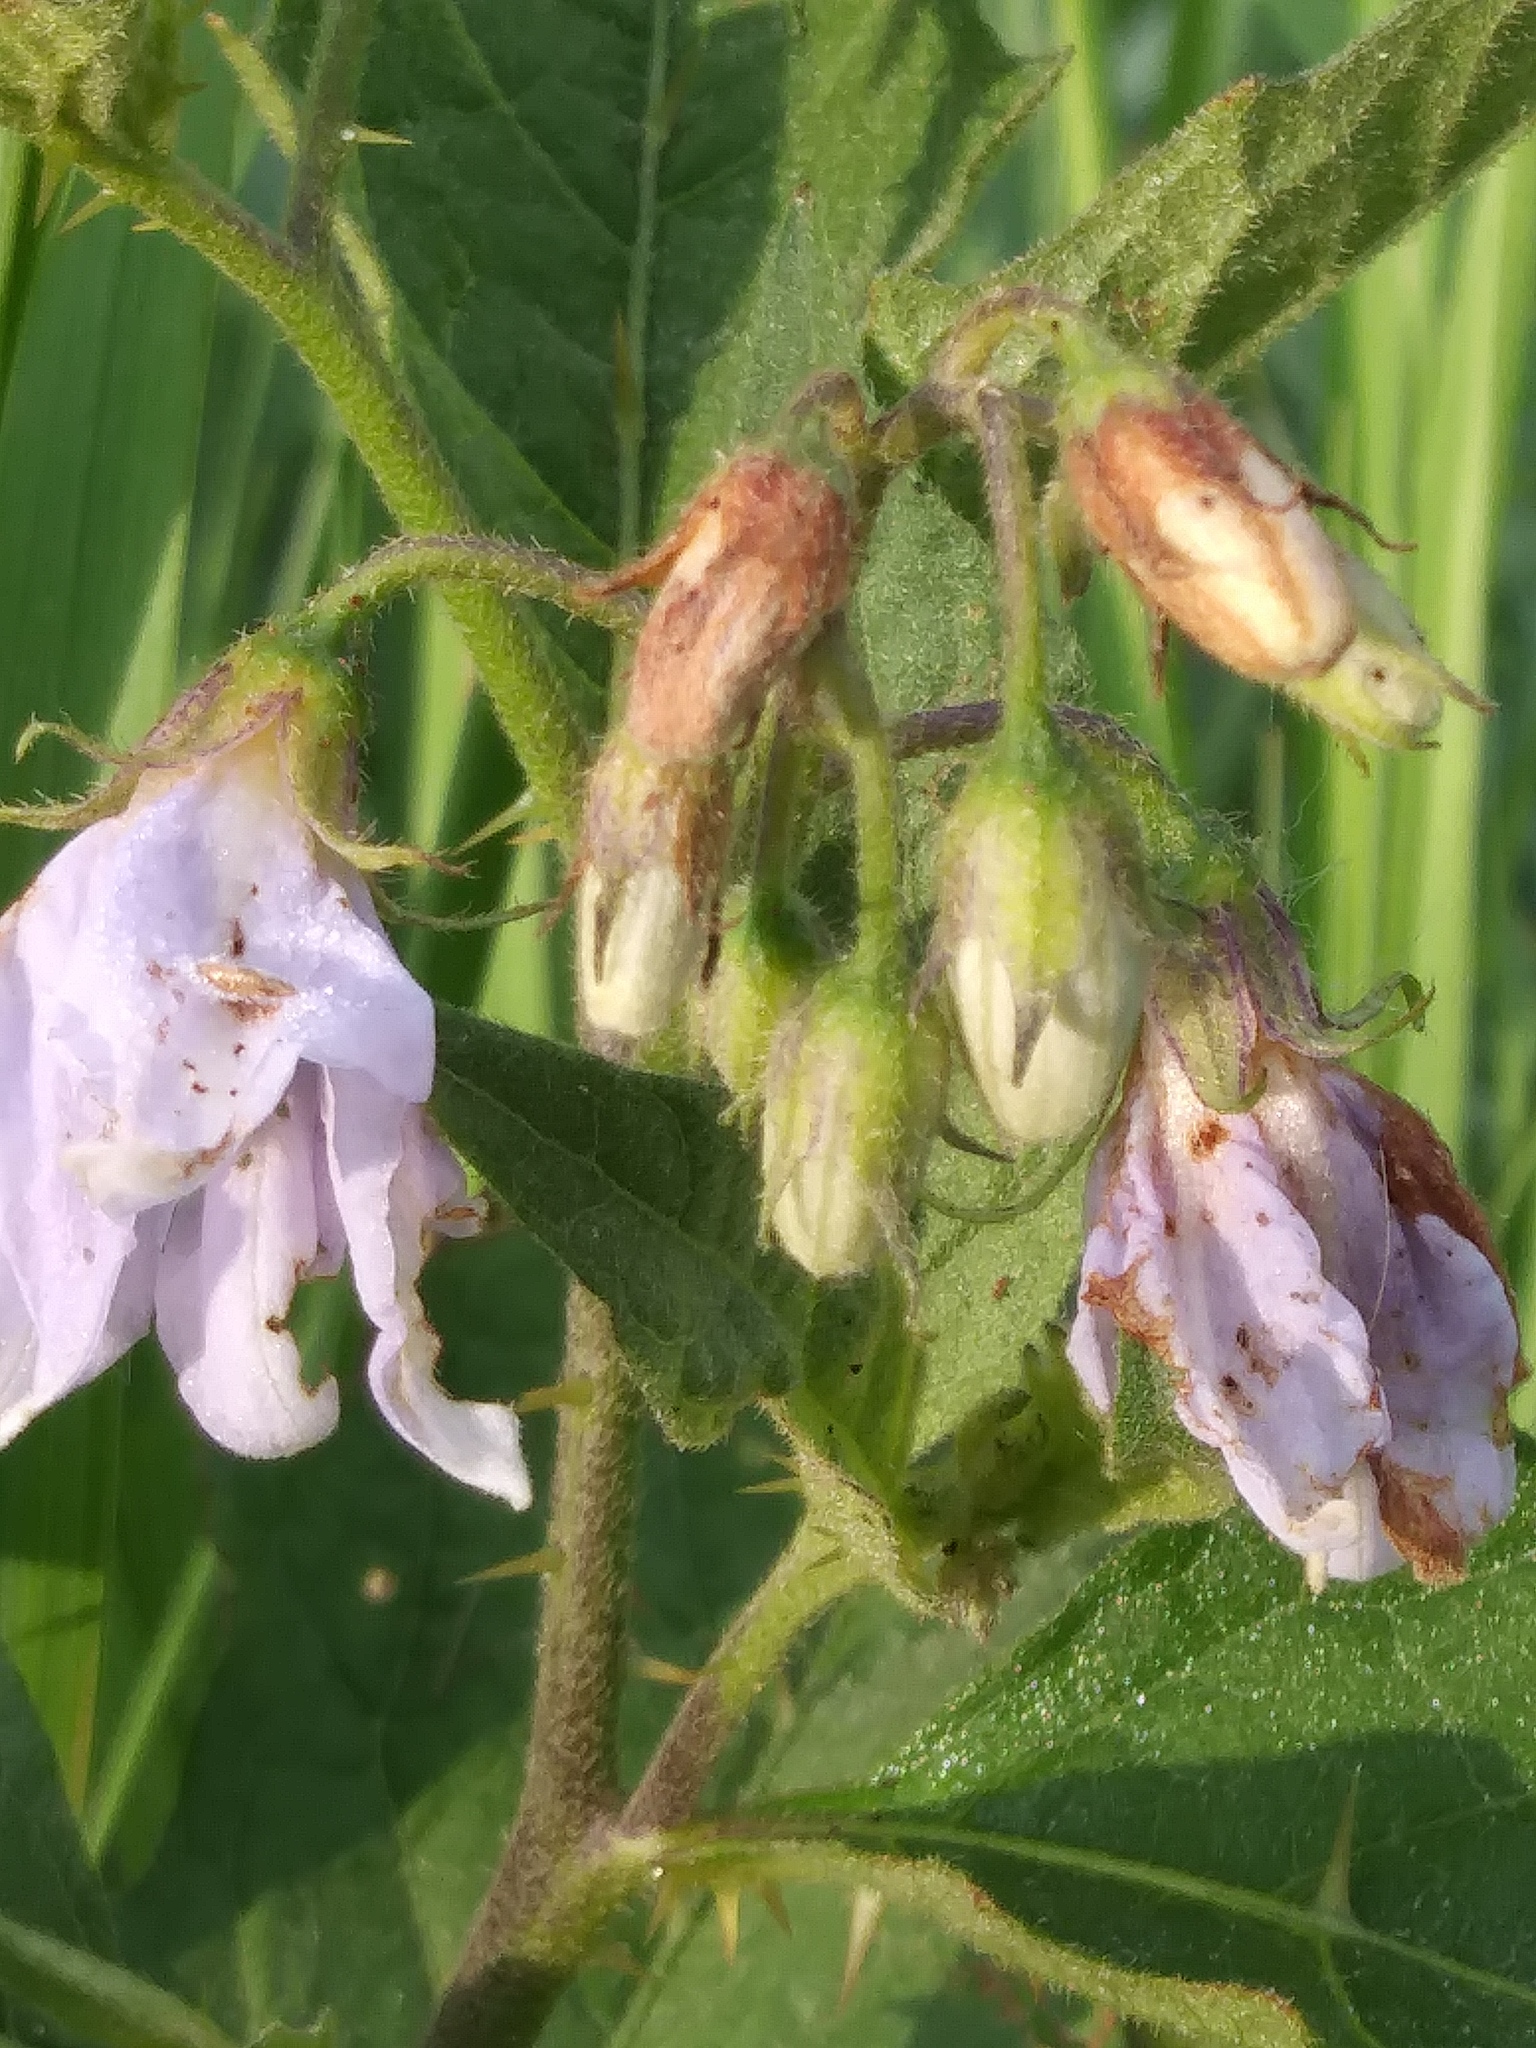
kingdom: Plantae
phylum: Tracheophyta
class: Magnoliopsida
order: Solanales
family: Solanaceae
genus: Solanum
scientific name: Solanum carolinense
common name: Horse-nettle
